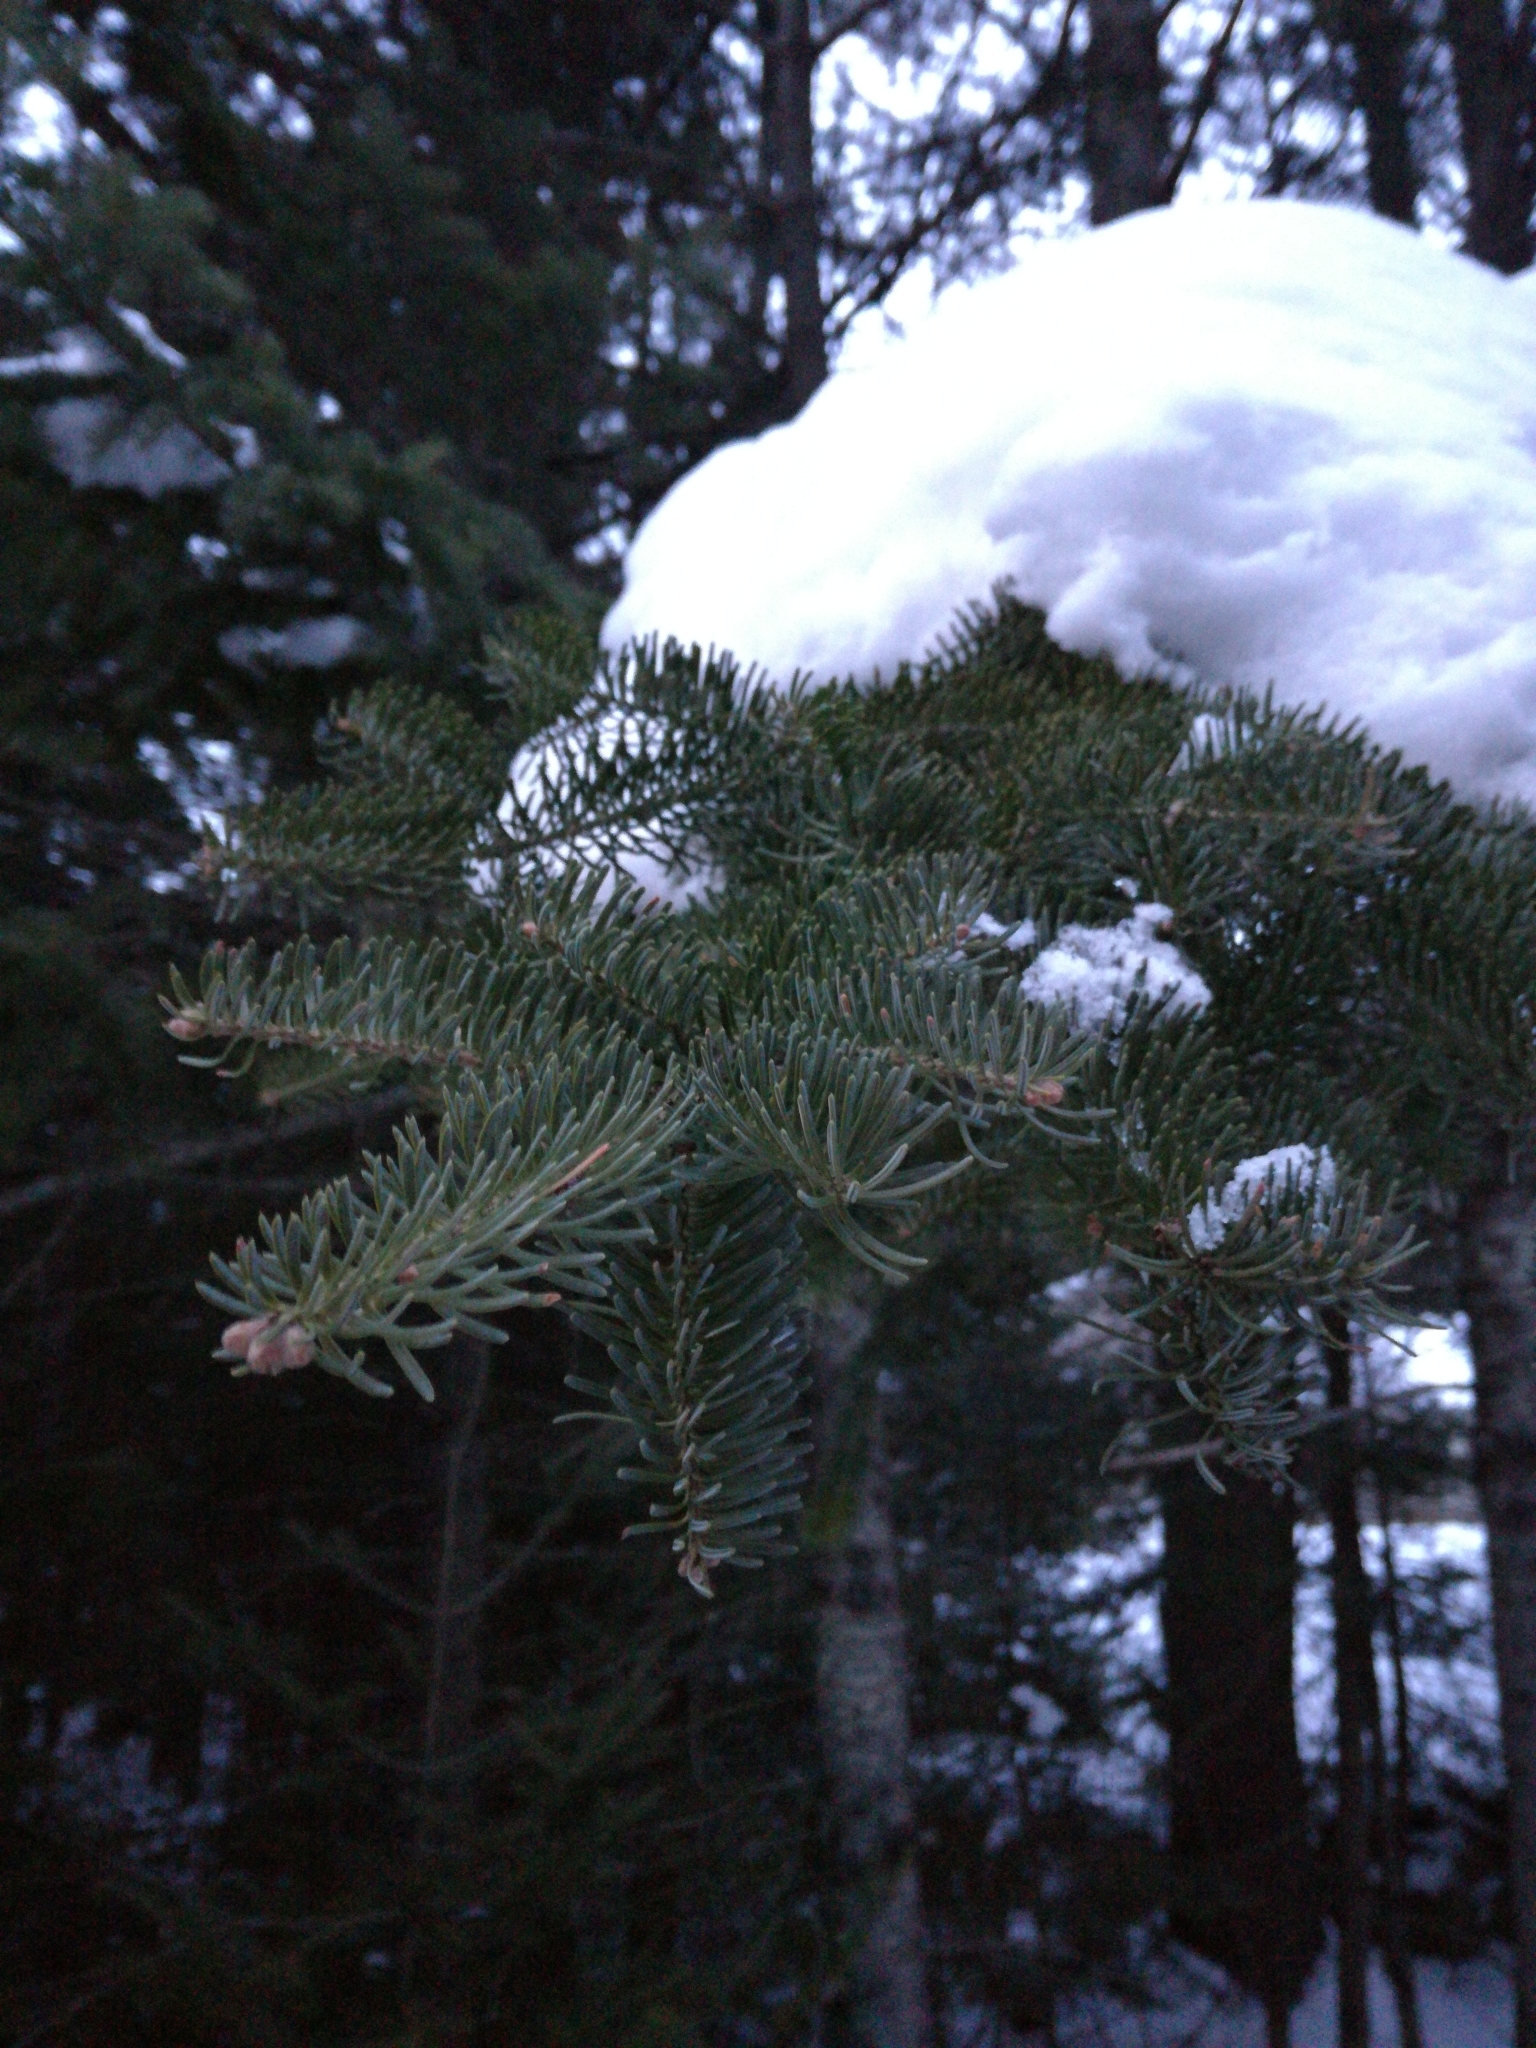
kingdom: Plantae
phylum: Tracheophyta
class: Pinopsida
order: Pinales
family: Pinaceae
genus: Abies
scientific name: Abies balsamea
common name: Balsam fir
